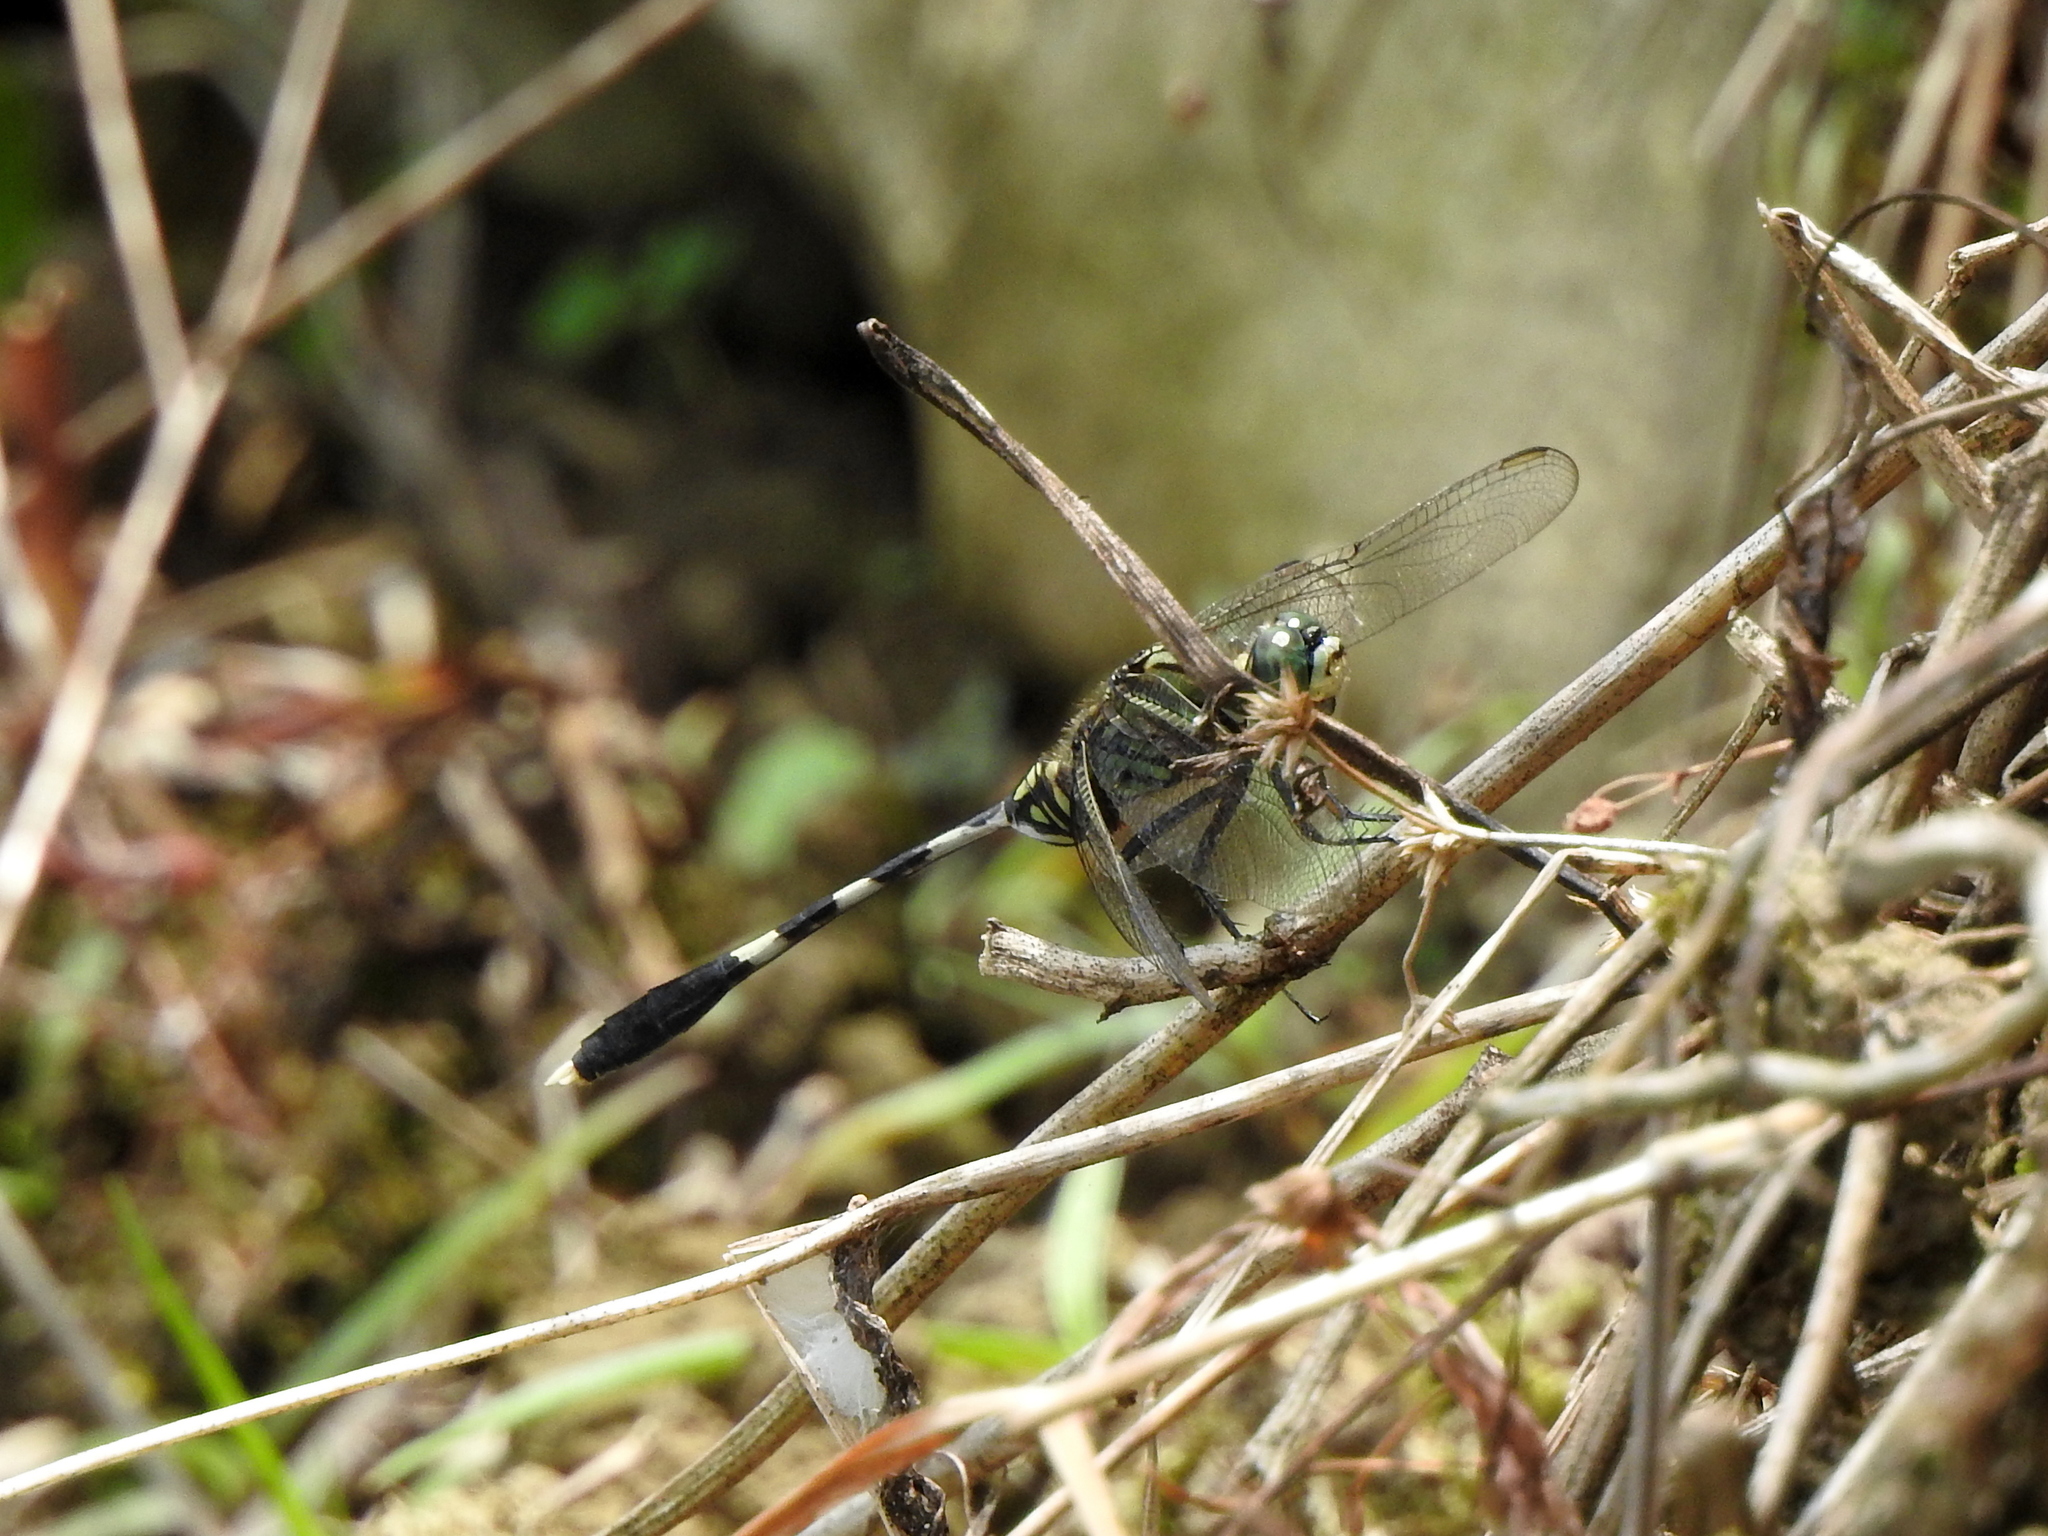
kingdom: Animalia
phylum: Arthropoda
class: Insecta
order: Odonata
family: Libellulidae
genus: Orthetrum
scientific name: Orthetrum sabina
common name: Slender skimmer
